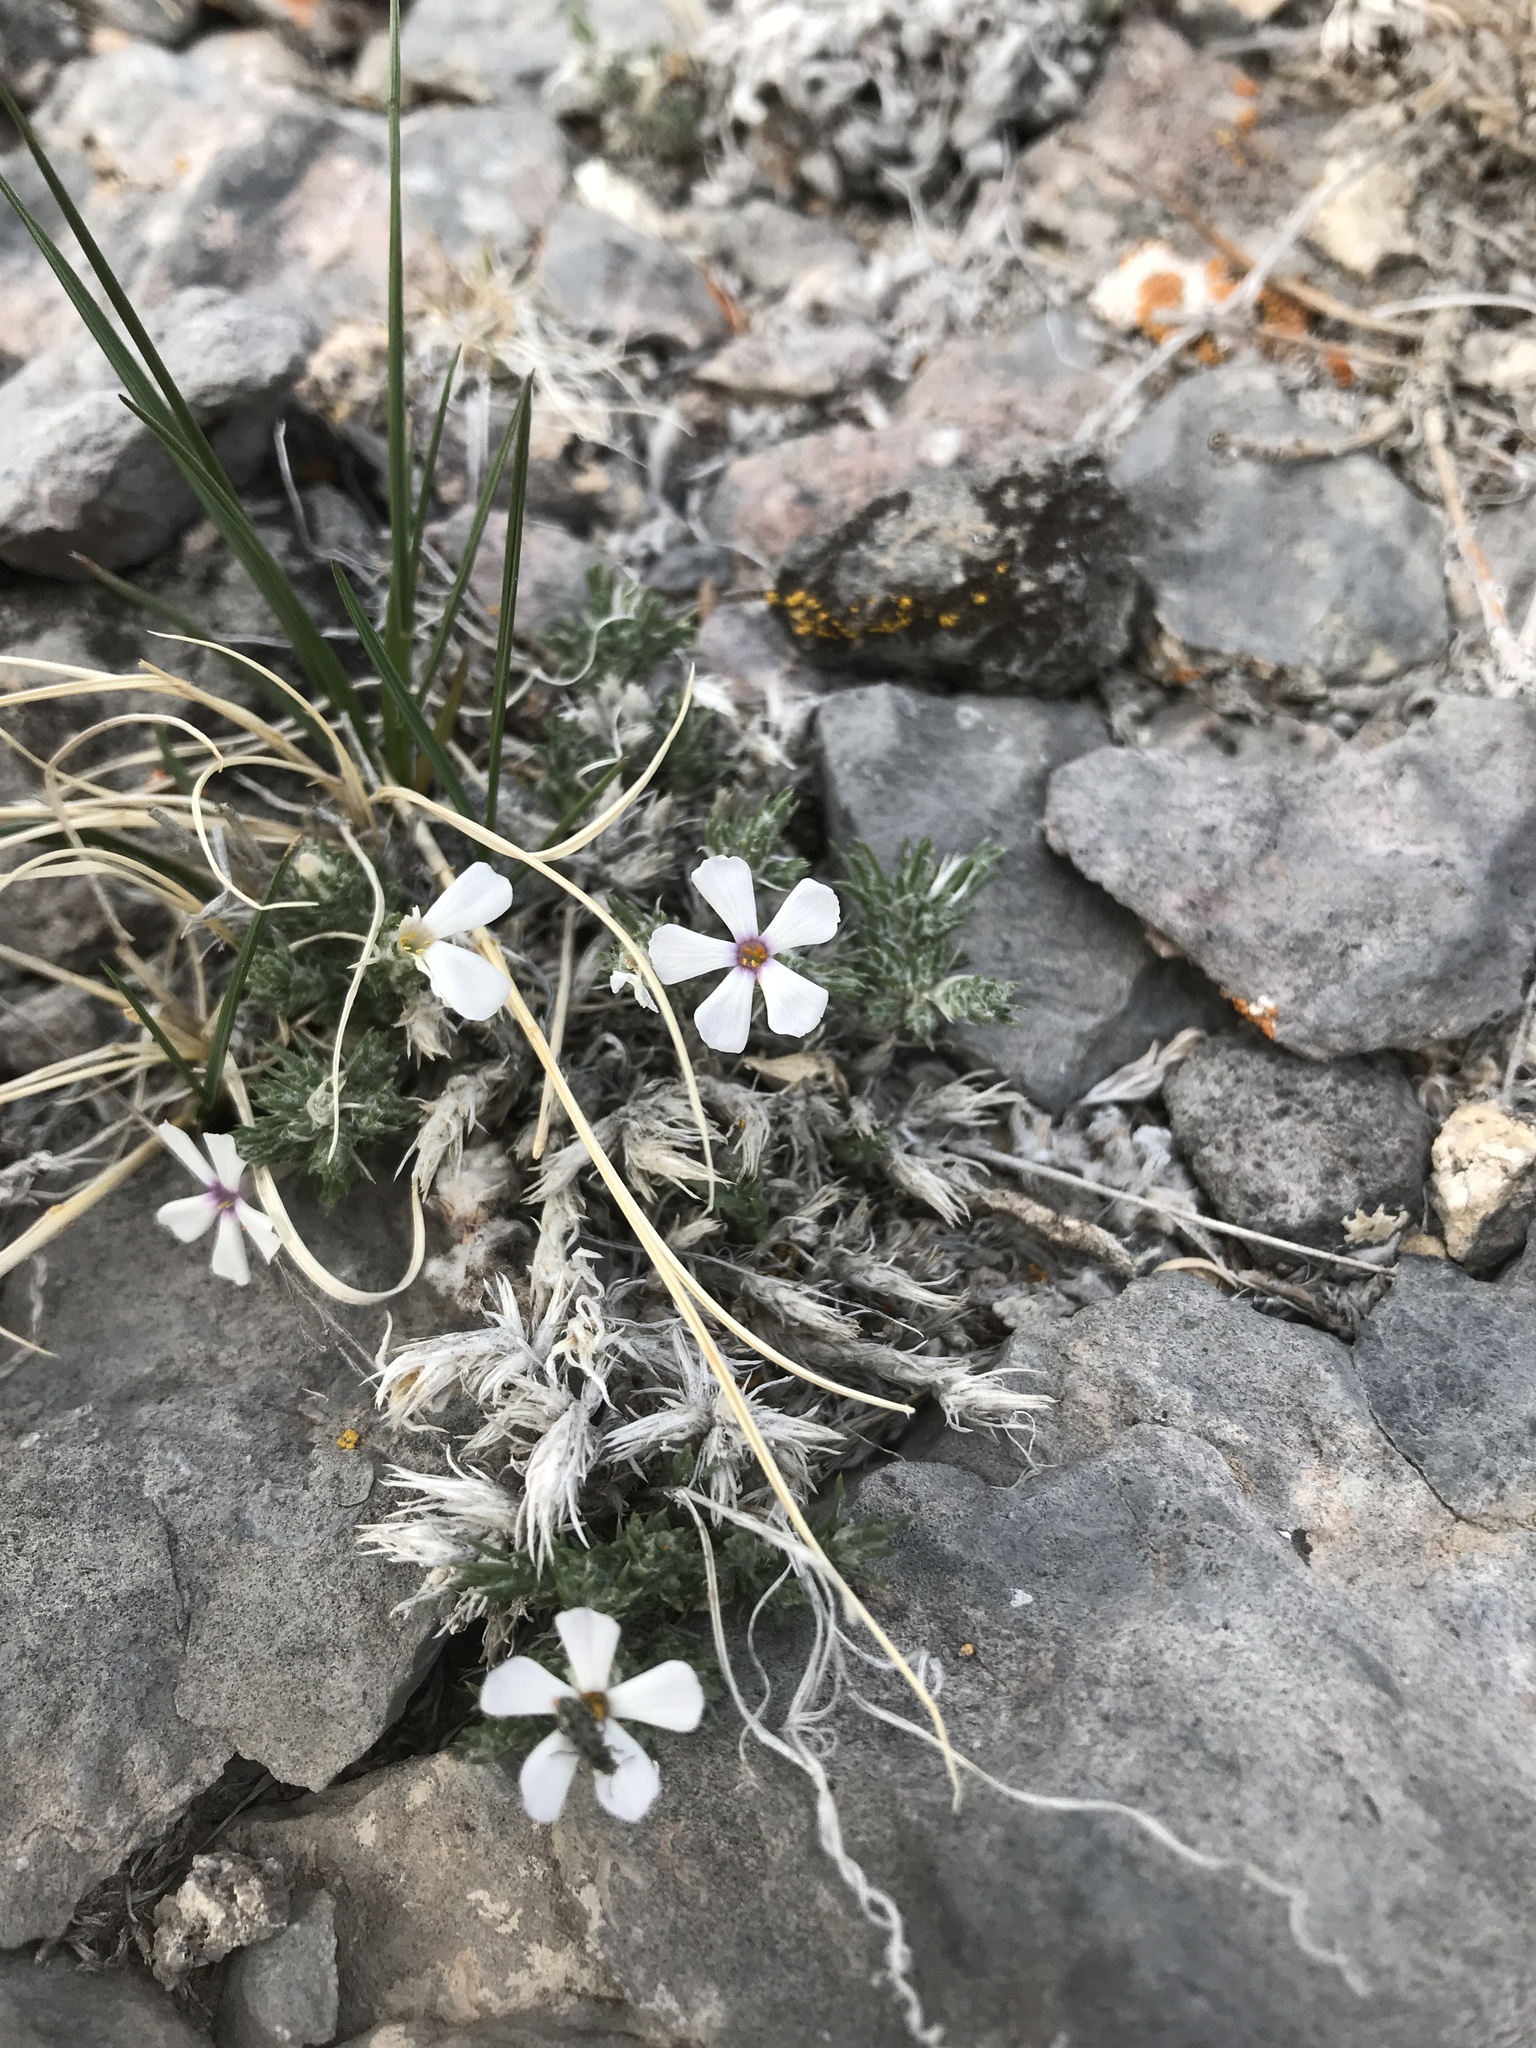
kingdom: Plantae
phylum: Tracheophyta
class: Magnoliopsida
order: Ericales
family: Polemoniaceae
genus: Phlox
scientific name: Phlox hoodii
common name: Moss phlox
